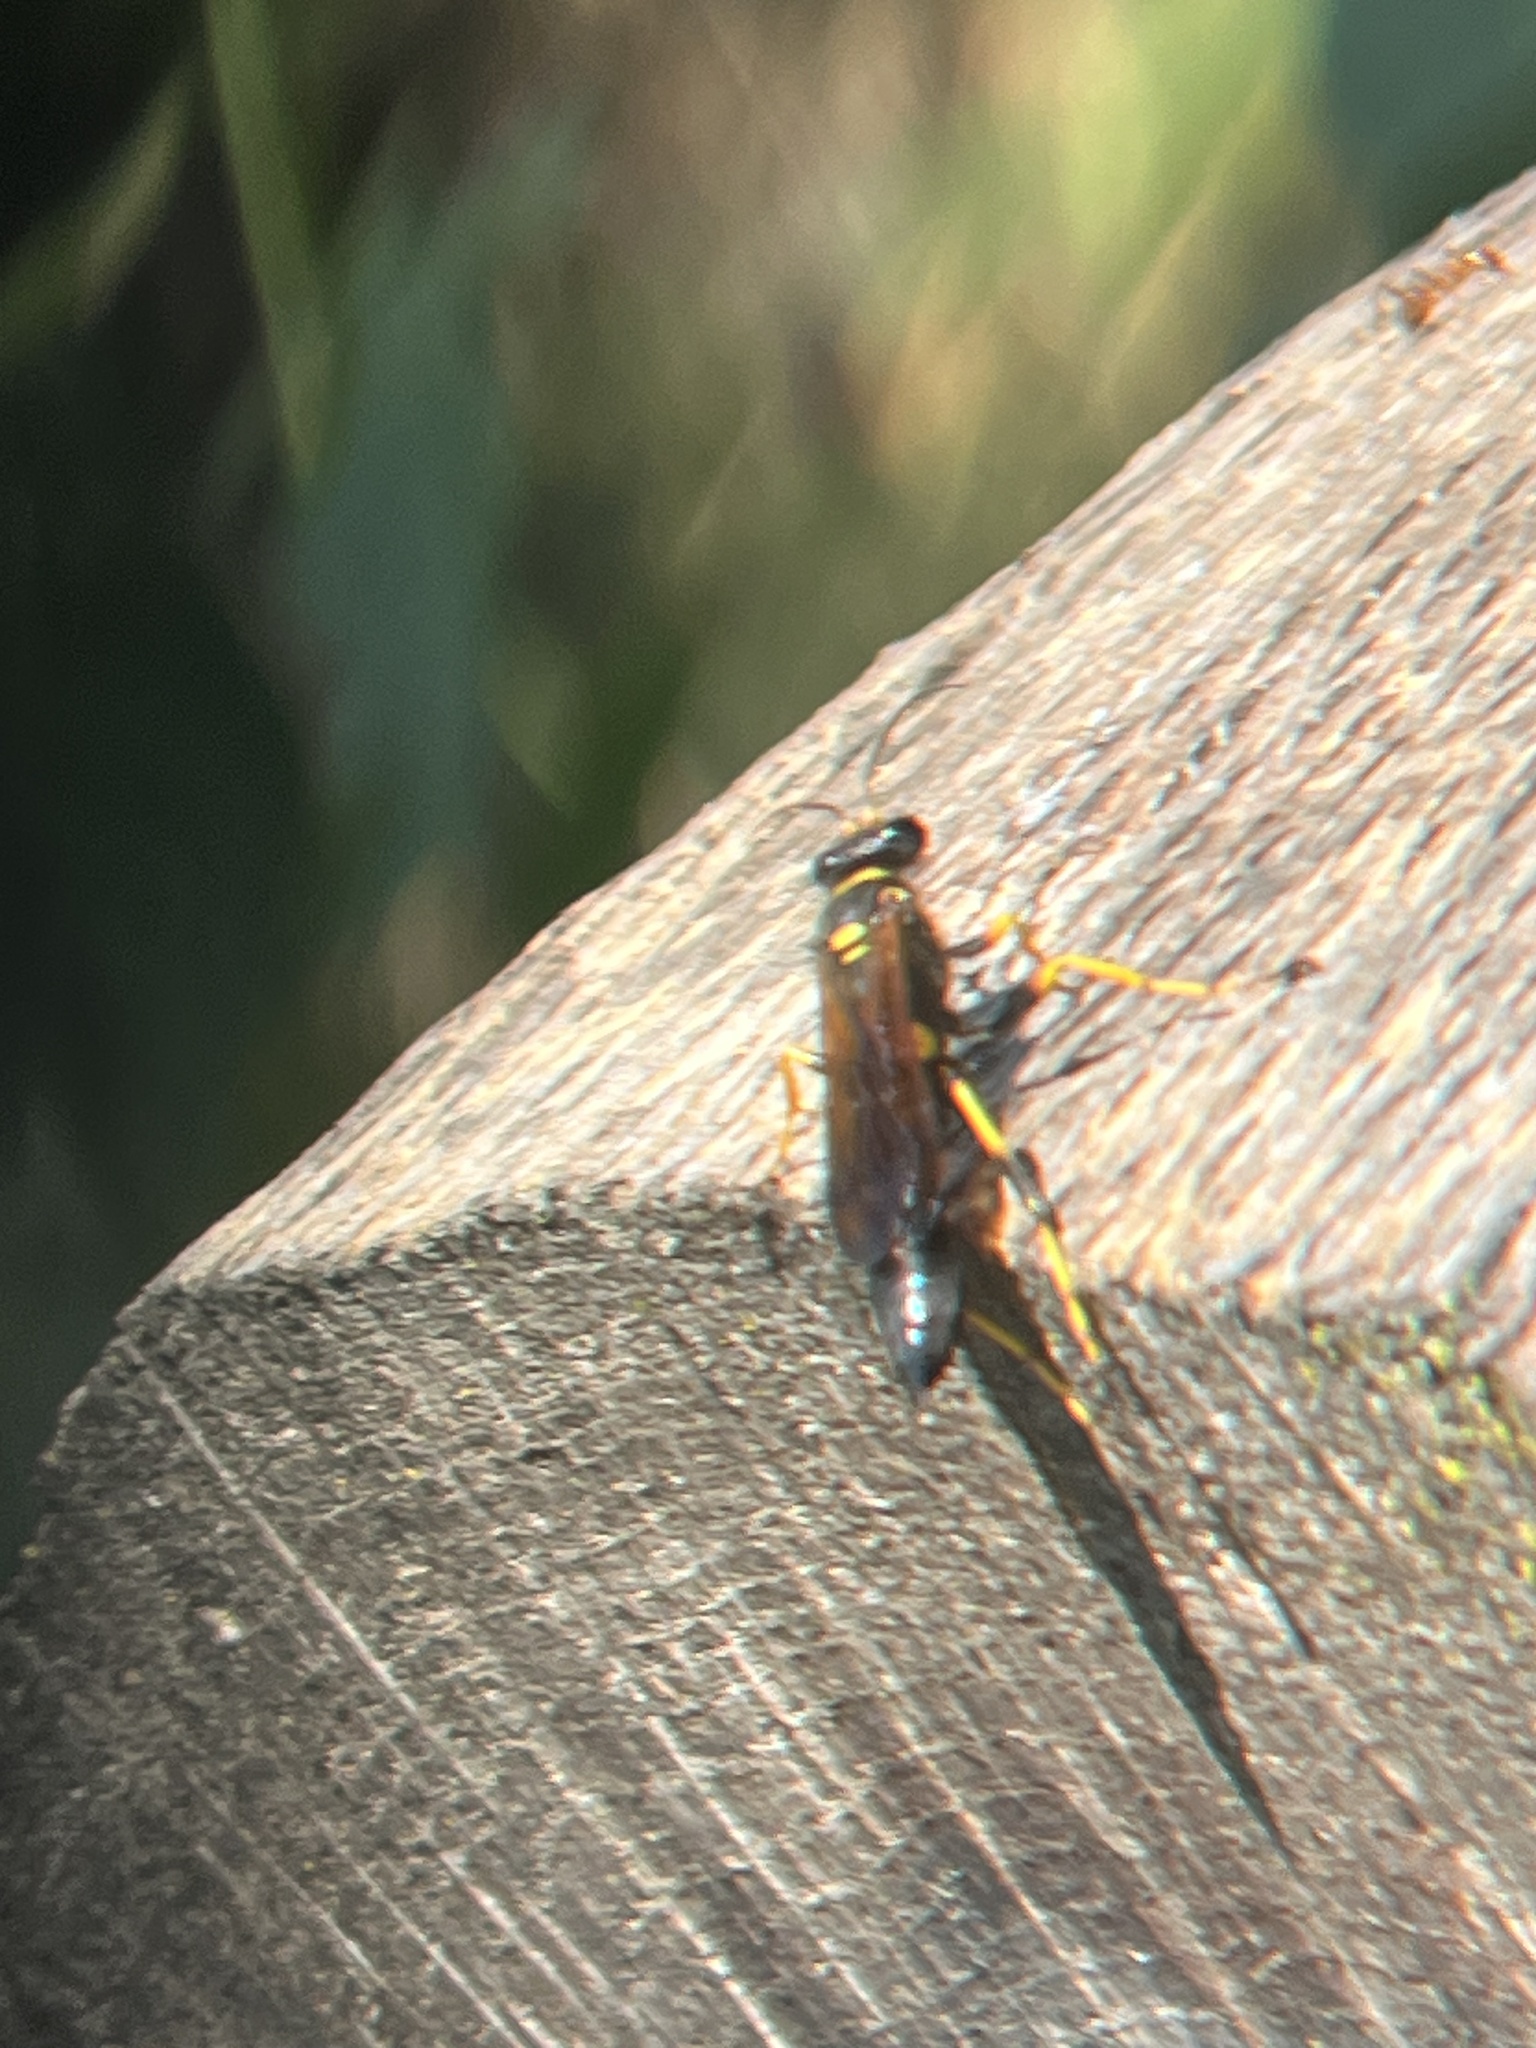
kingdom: Animalia
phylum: Arthropoda
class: Insecta
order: Hymenoptera
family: Sphecidae
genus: Sceliphron
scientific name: Sceliphron caementarium
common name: Mud dauber
